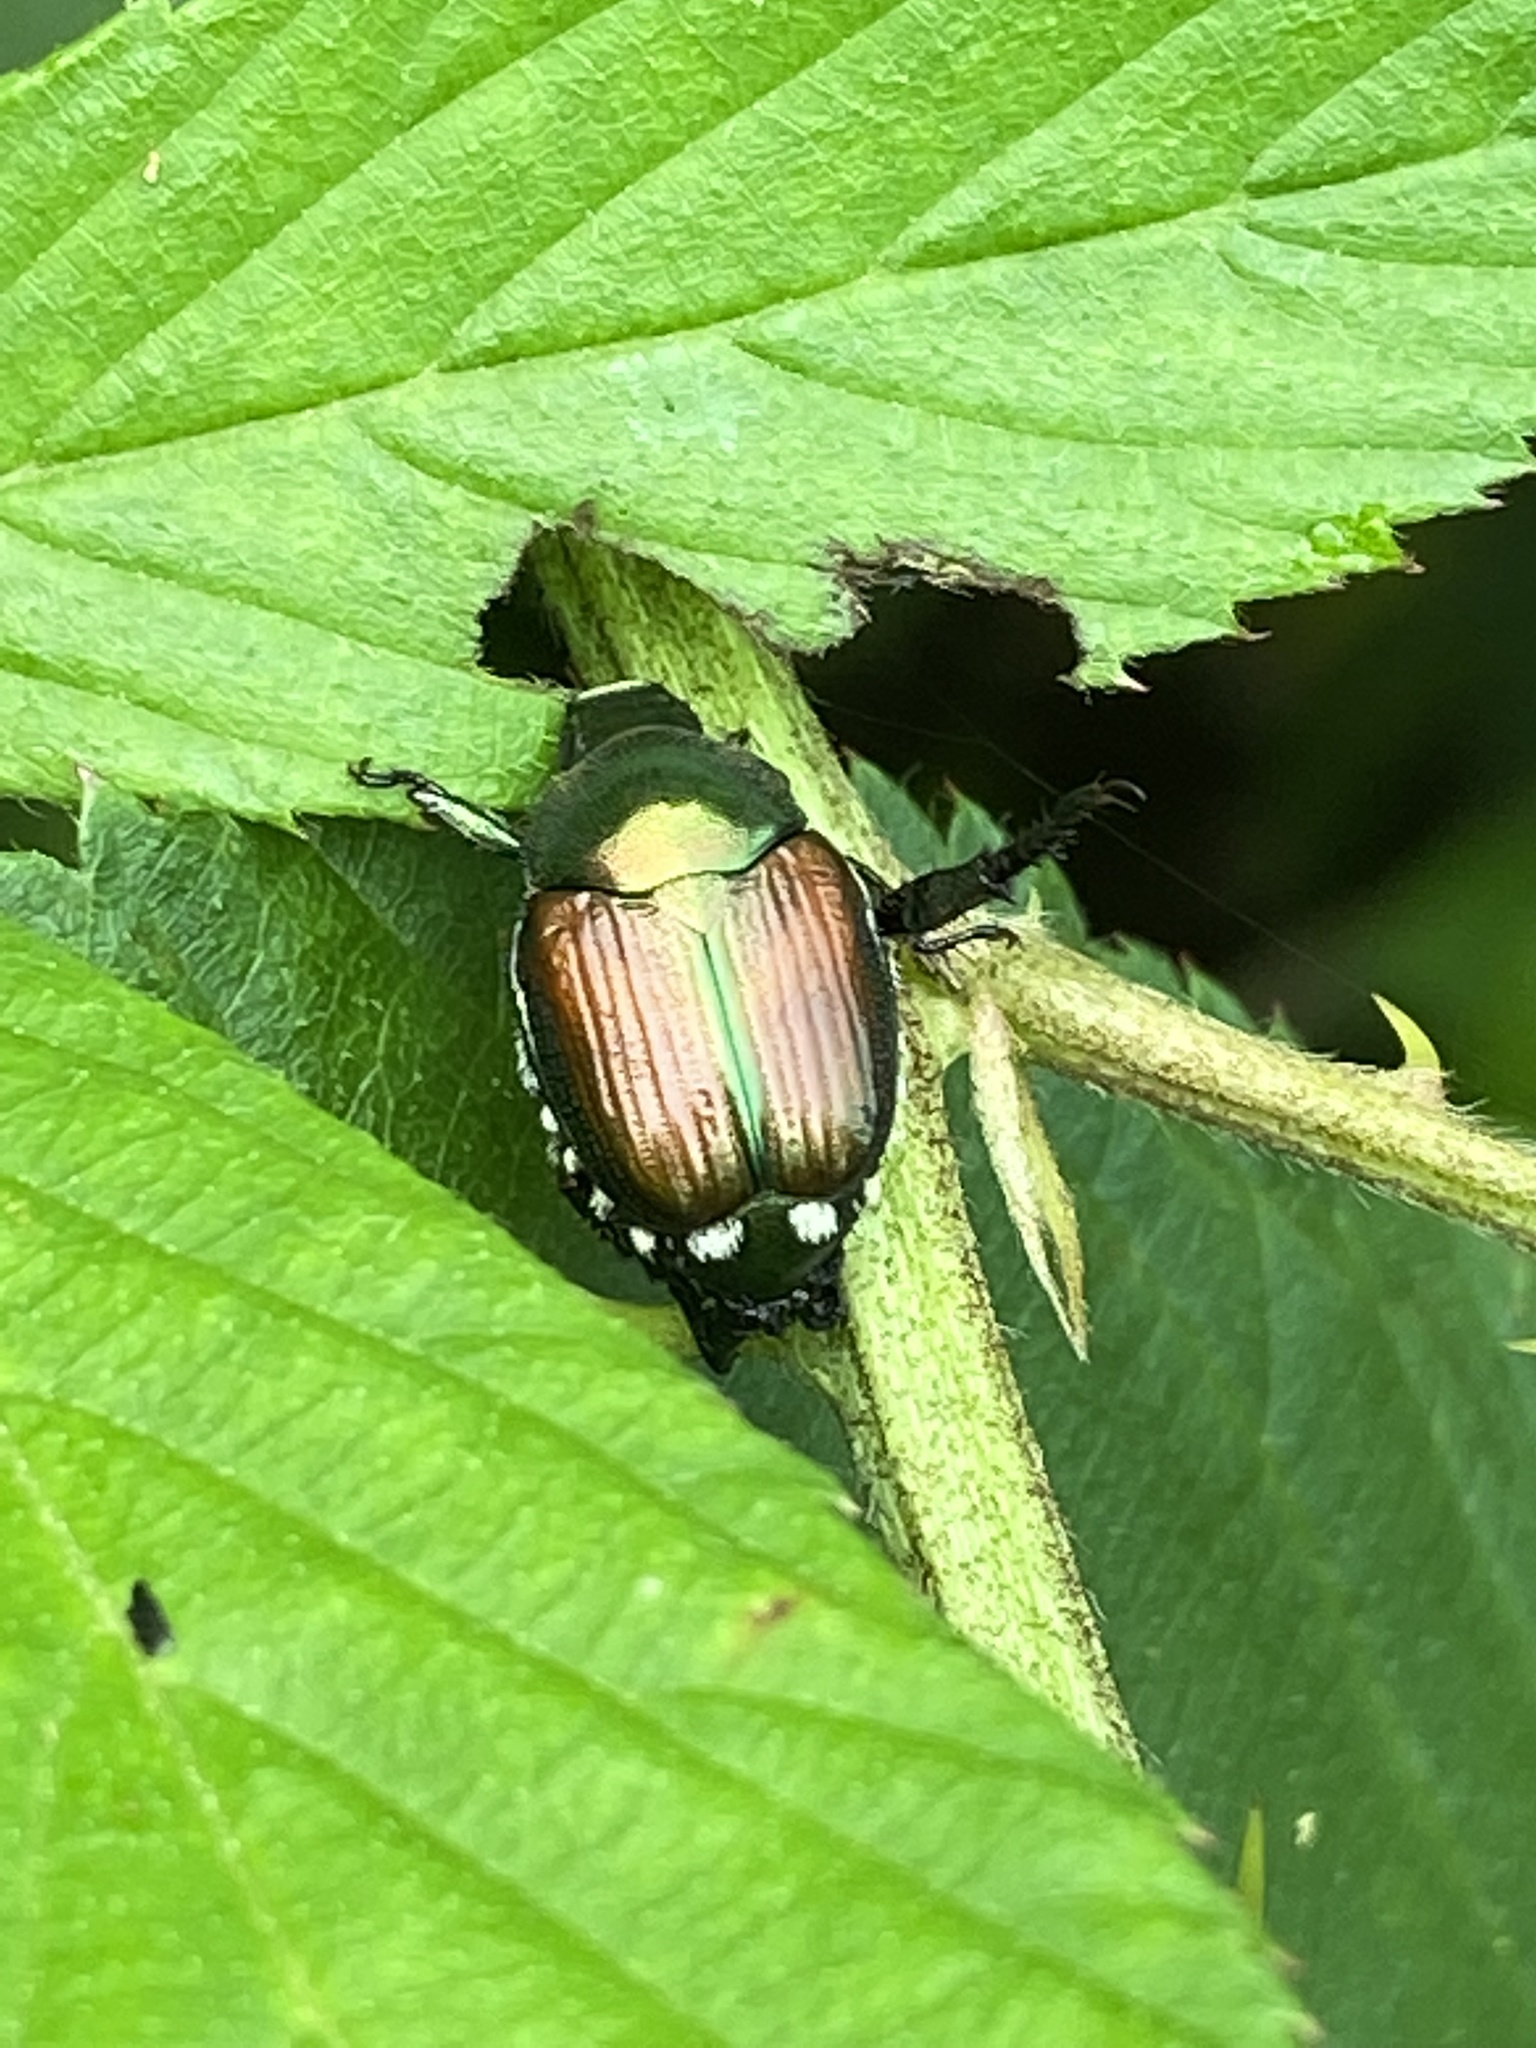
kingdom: Animalia
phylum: Arthropoda
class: Insecta
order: Coleoptera
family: Scarabaeidae
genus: Popillia
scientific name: Popillia japonica
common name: Japanese beetle
